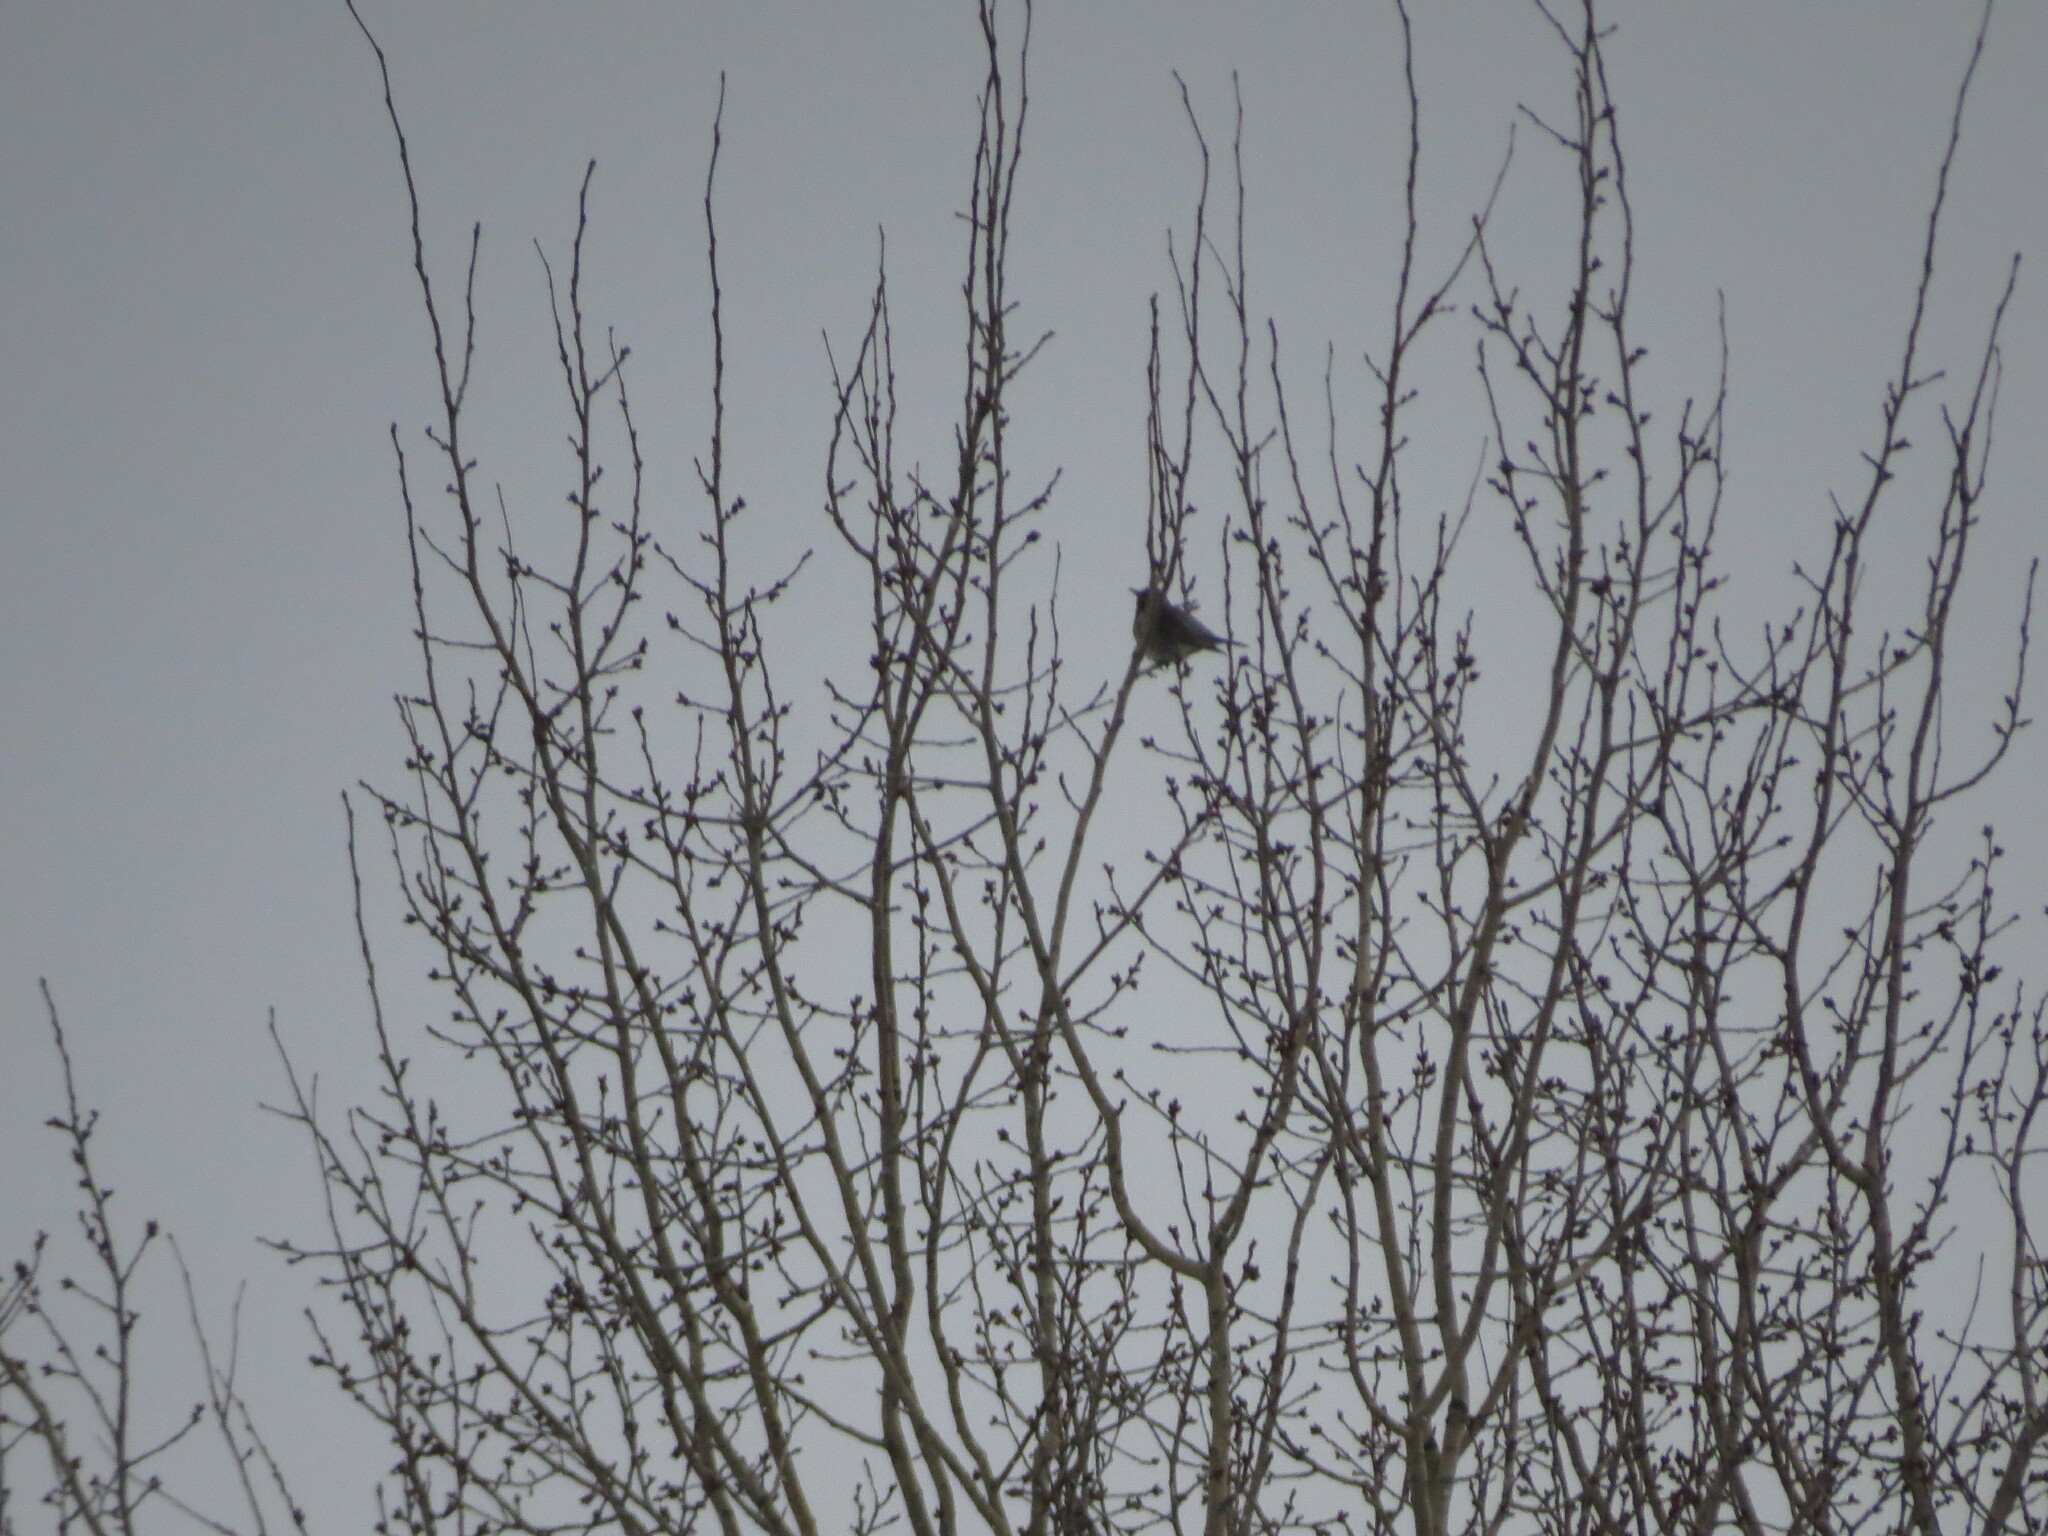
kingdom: Animalia
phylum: Chordata
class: Aves
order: Passeriformes
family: Turdidae
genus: Turdus
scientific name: Turdus pilaris
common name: Fieldfare
